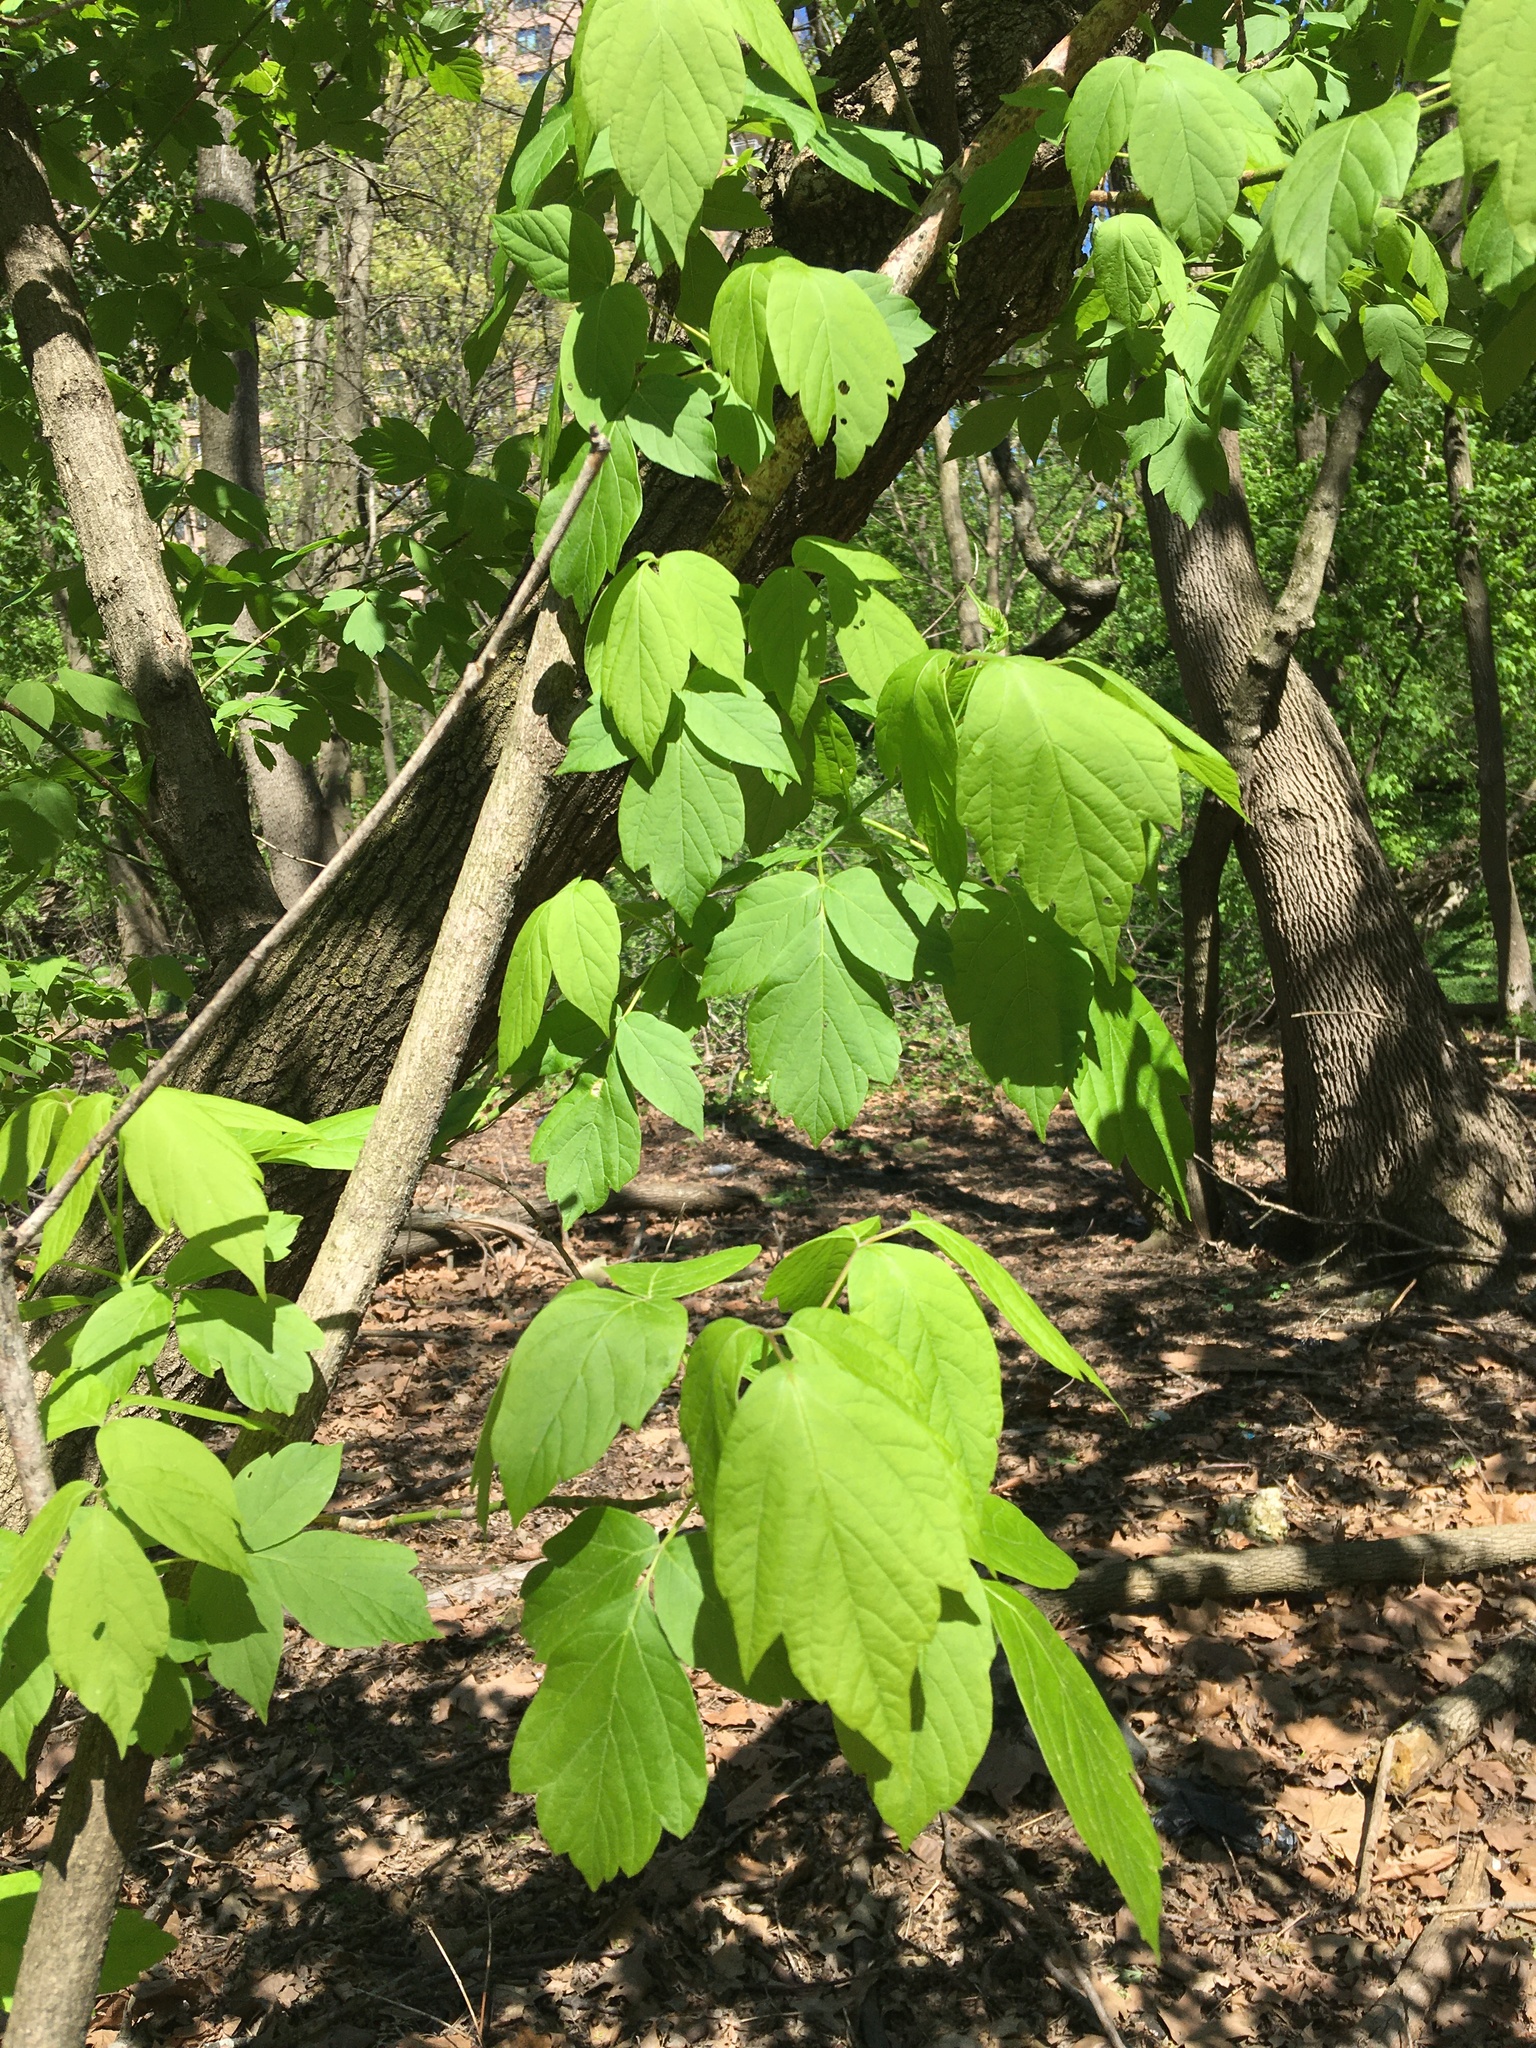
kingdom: Plantae
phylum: Tracheophyta
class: Magnoliopsida
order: Sapindales
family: Sapindaceae
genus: Acer
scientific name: Acer negundo
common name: Ashleaf maple
